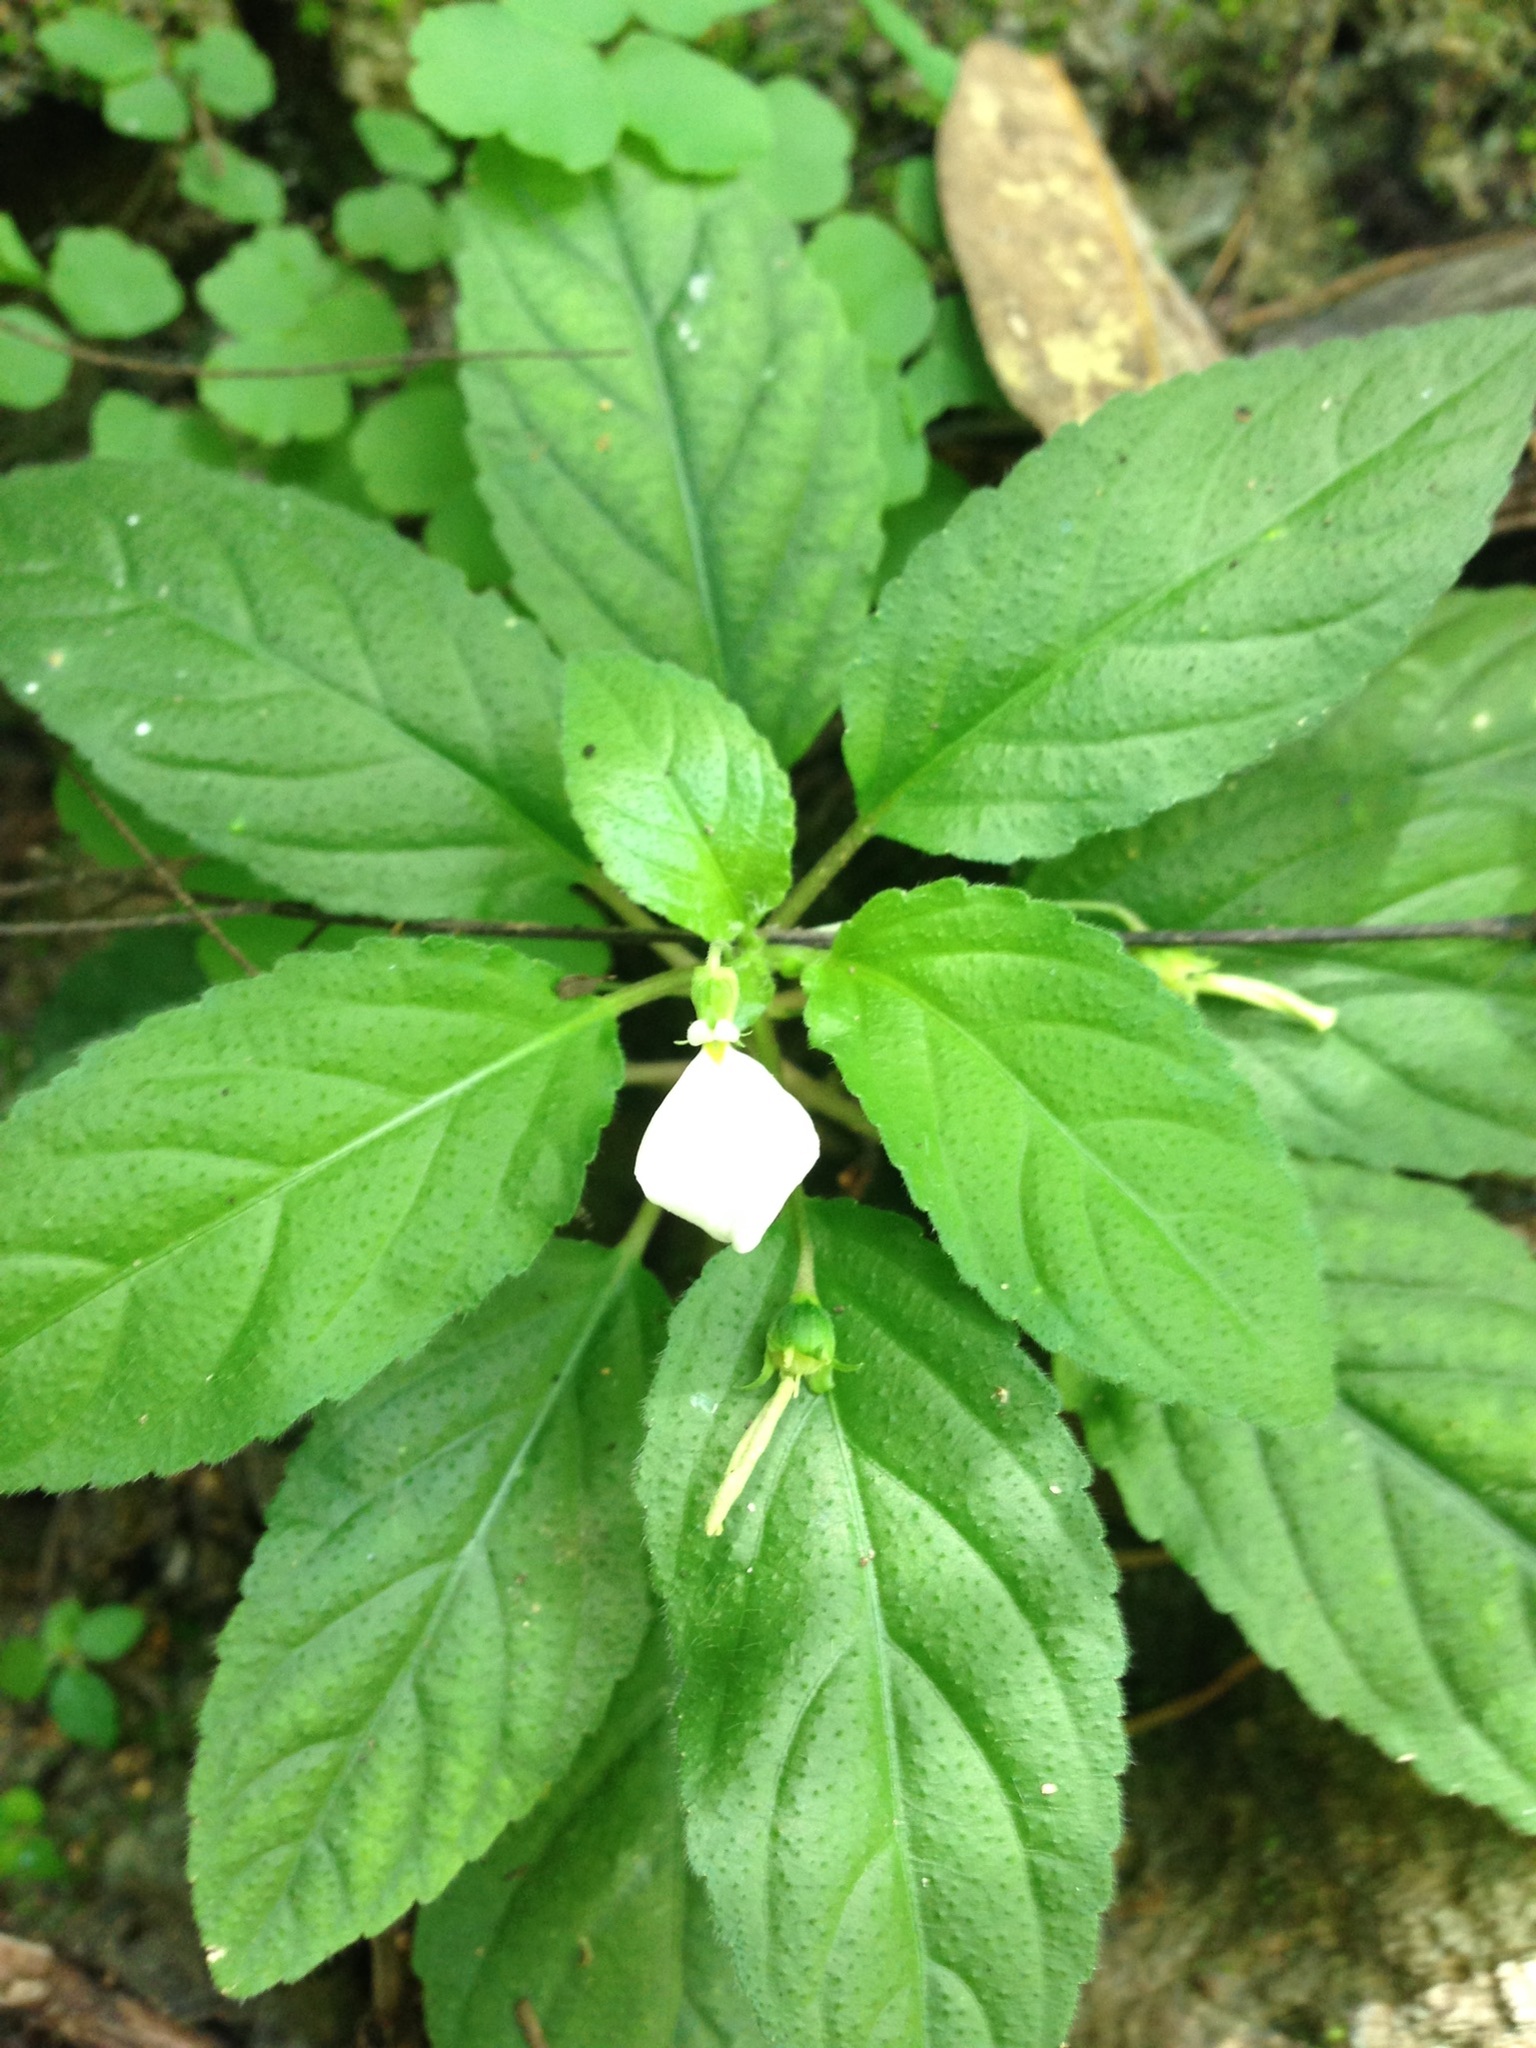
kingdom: Plantae
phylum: Tracheophyta
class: Magnoliopsida
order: Malpighiales
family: Violaceae
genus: Hybanthus
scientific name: Hybanthus longipes
